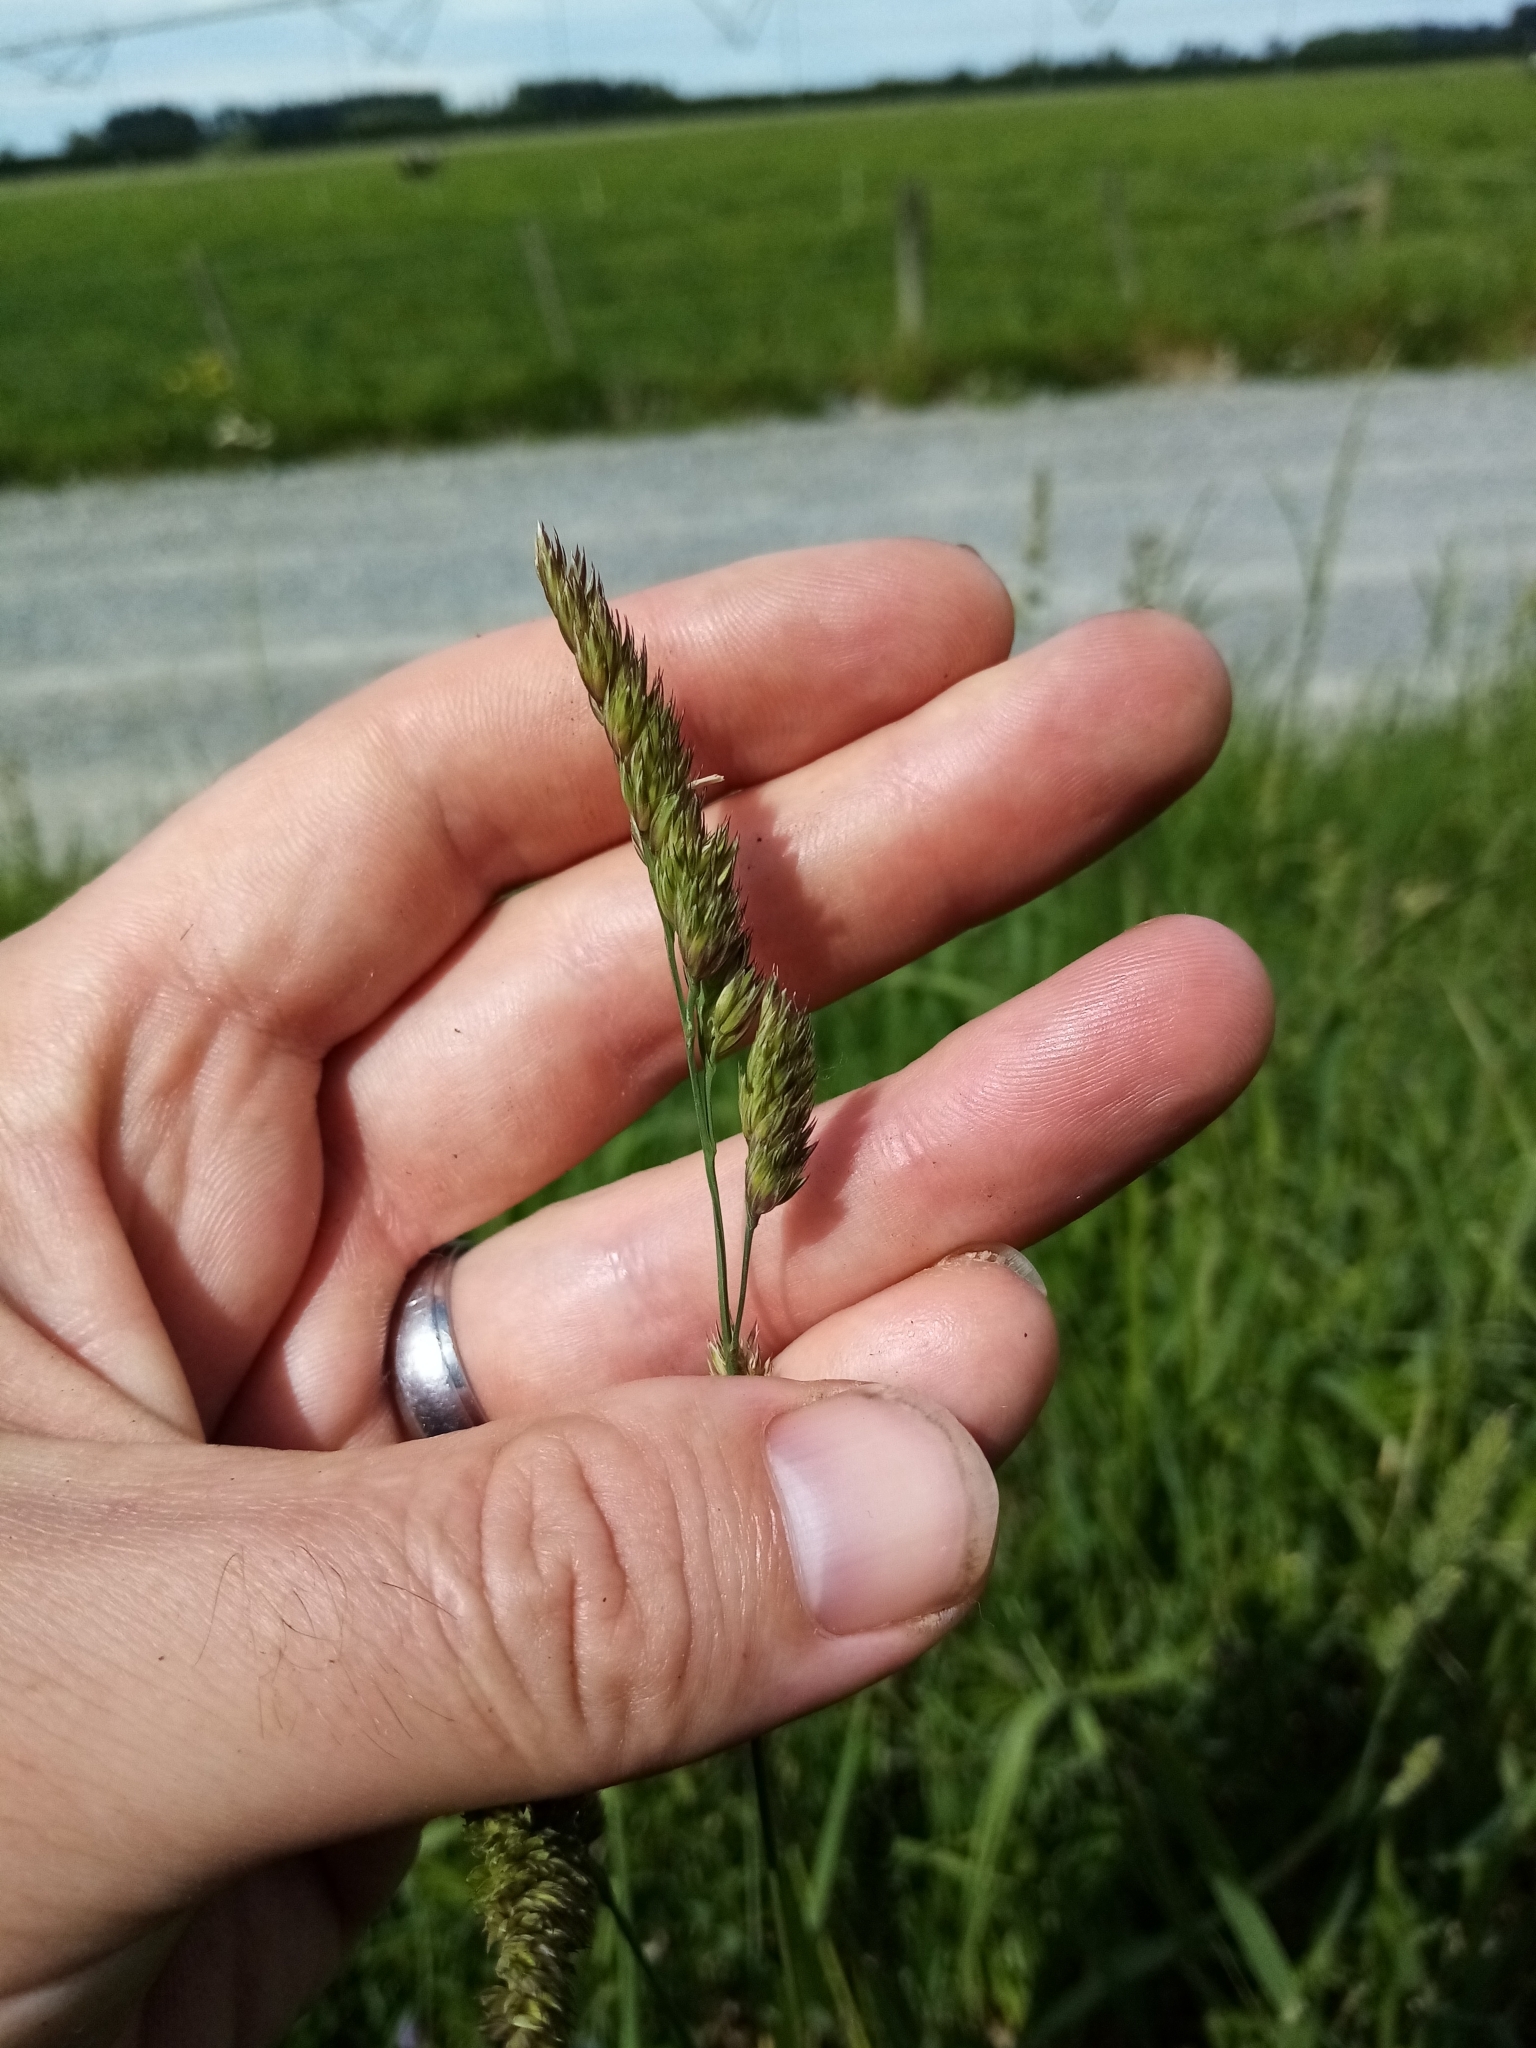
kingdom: Plantae
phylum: Tracheophyta
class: Liliopsida
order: Poales
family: Poaceae
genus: Dactylis
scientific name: Dactylis glomerata
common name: Orchardgrass
